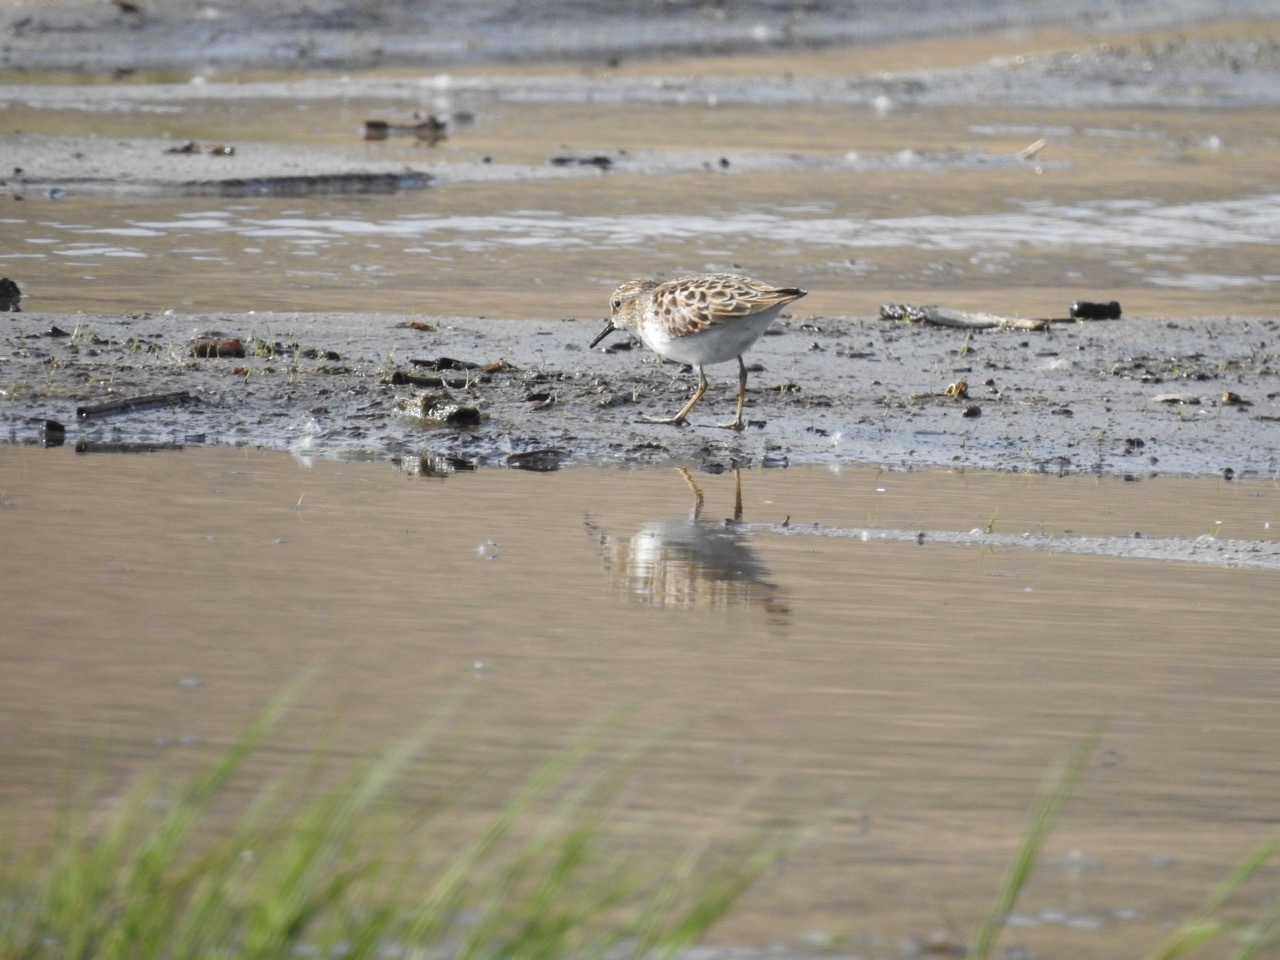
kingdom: Animalia
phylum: Chordata
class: Aves
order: Charadriiformes
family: Scolopacidae
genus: Calidris
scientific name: Calidris minutilla
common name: Least sandpiper
